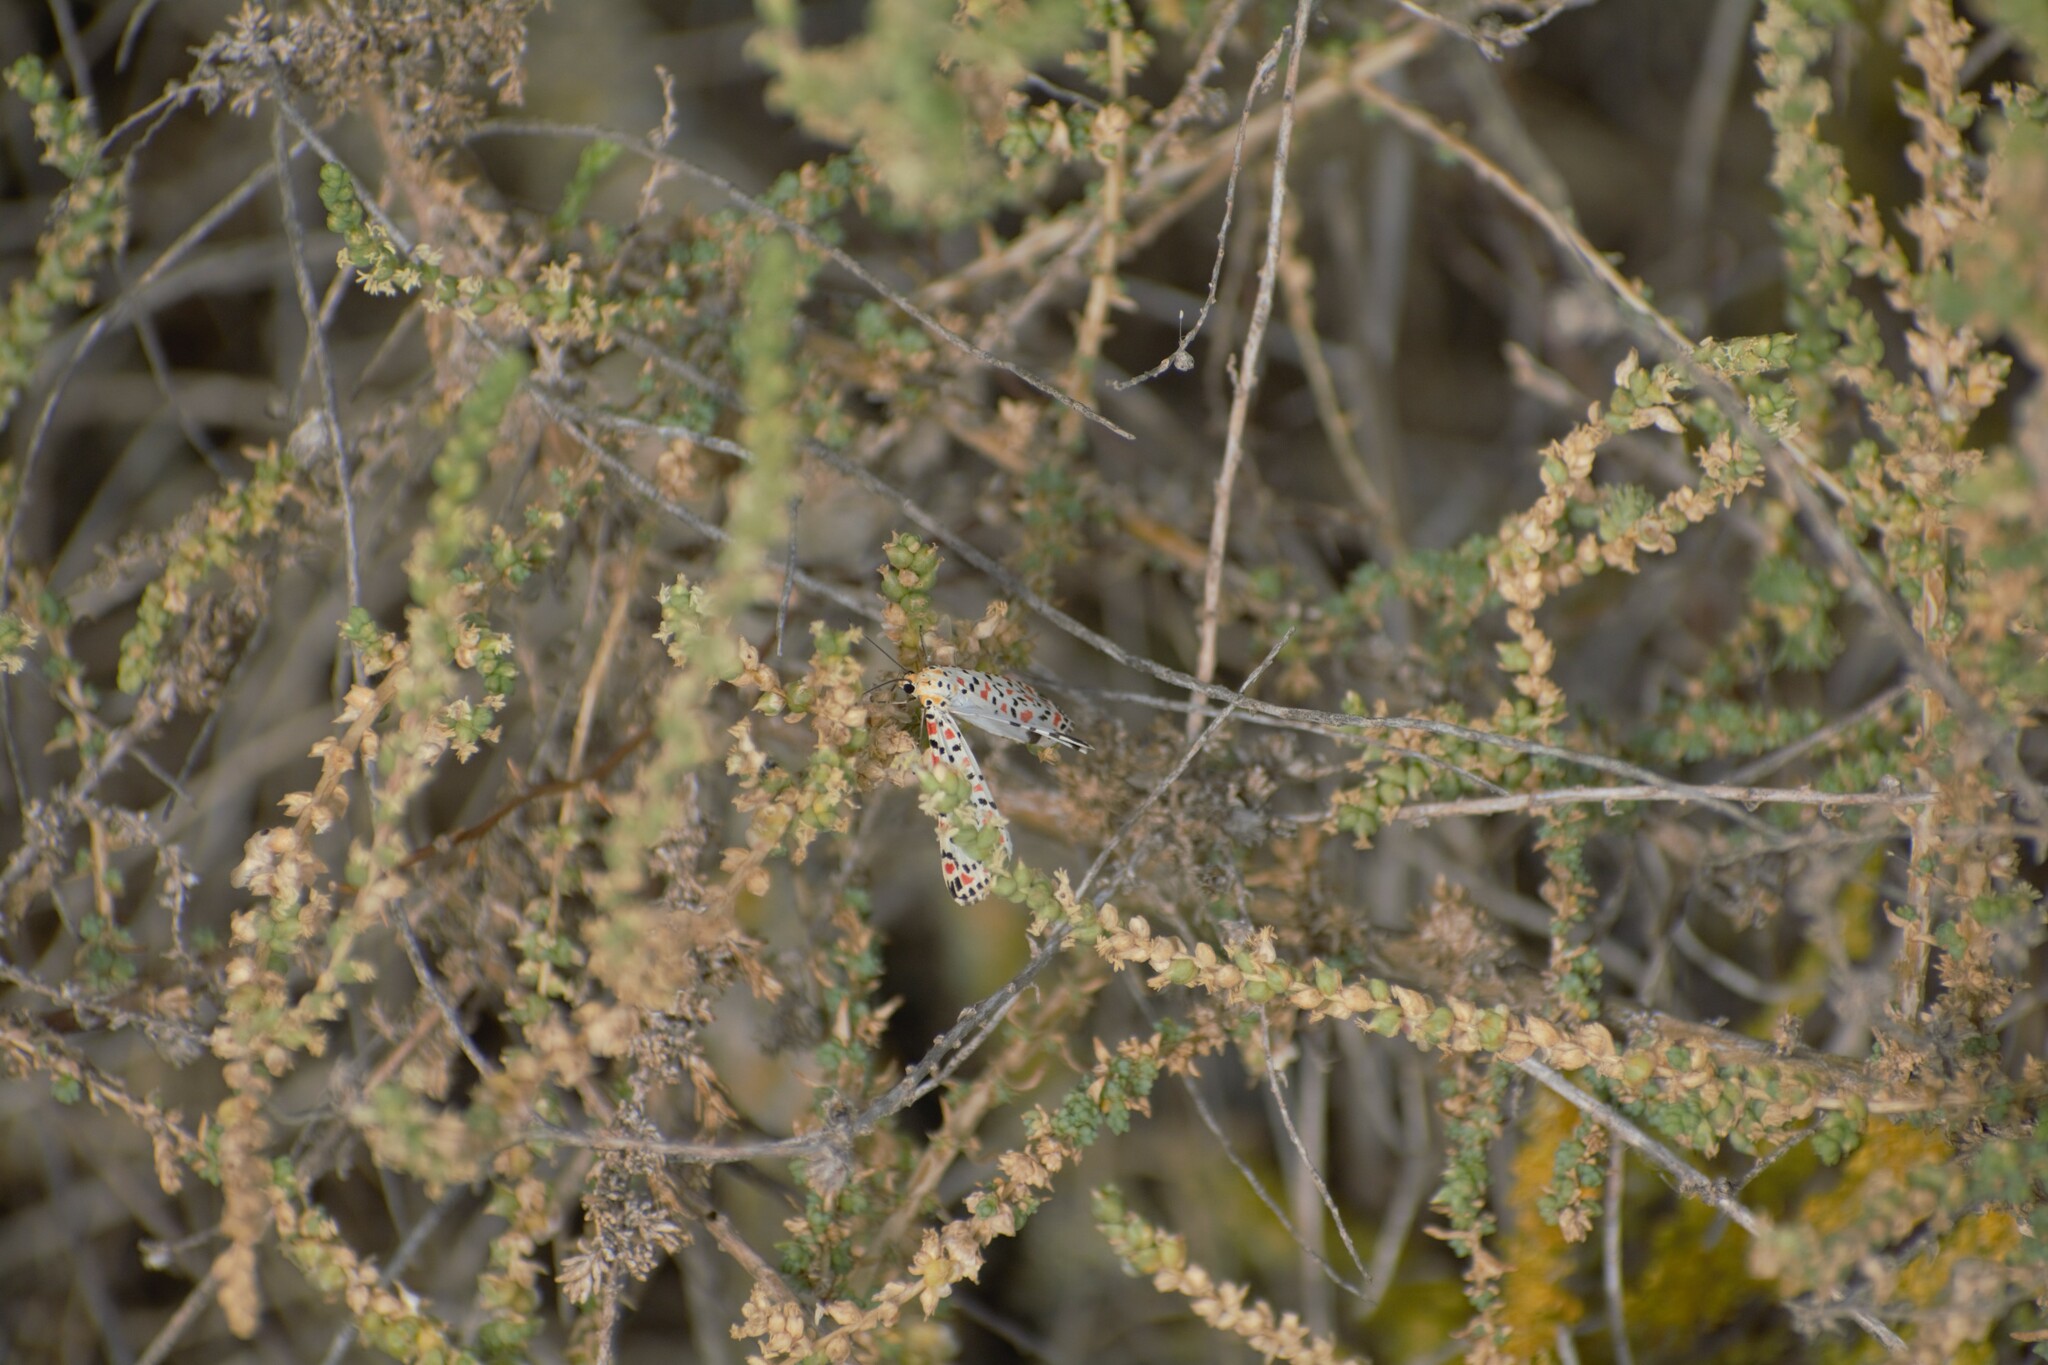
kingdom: Animalia
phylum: Arthropoda
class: Insecta
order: Lepidoptera
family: Erebidae
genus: Utetheisa
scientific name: Utetheisa pulchella
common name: Crimson speckled
